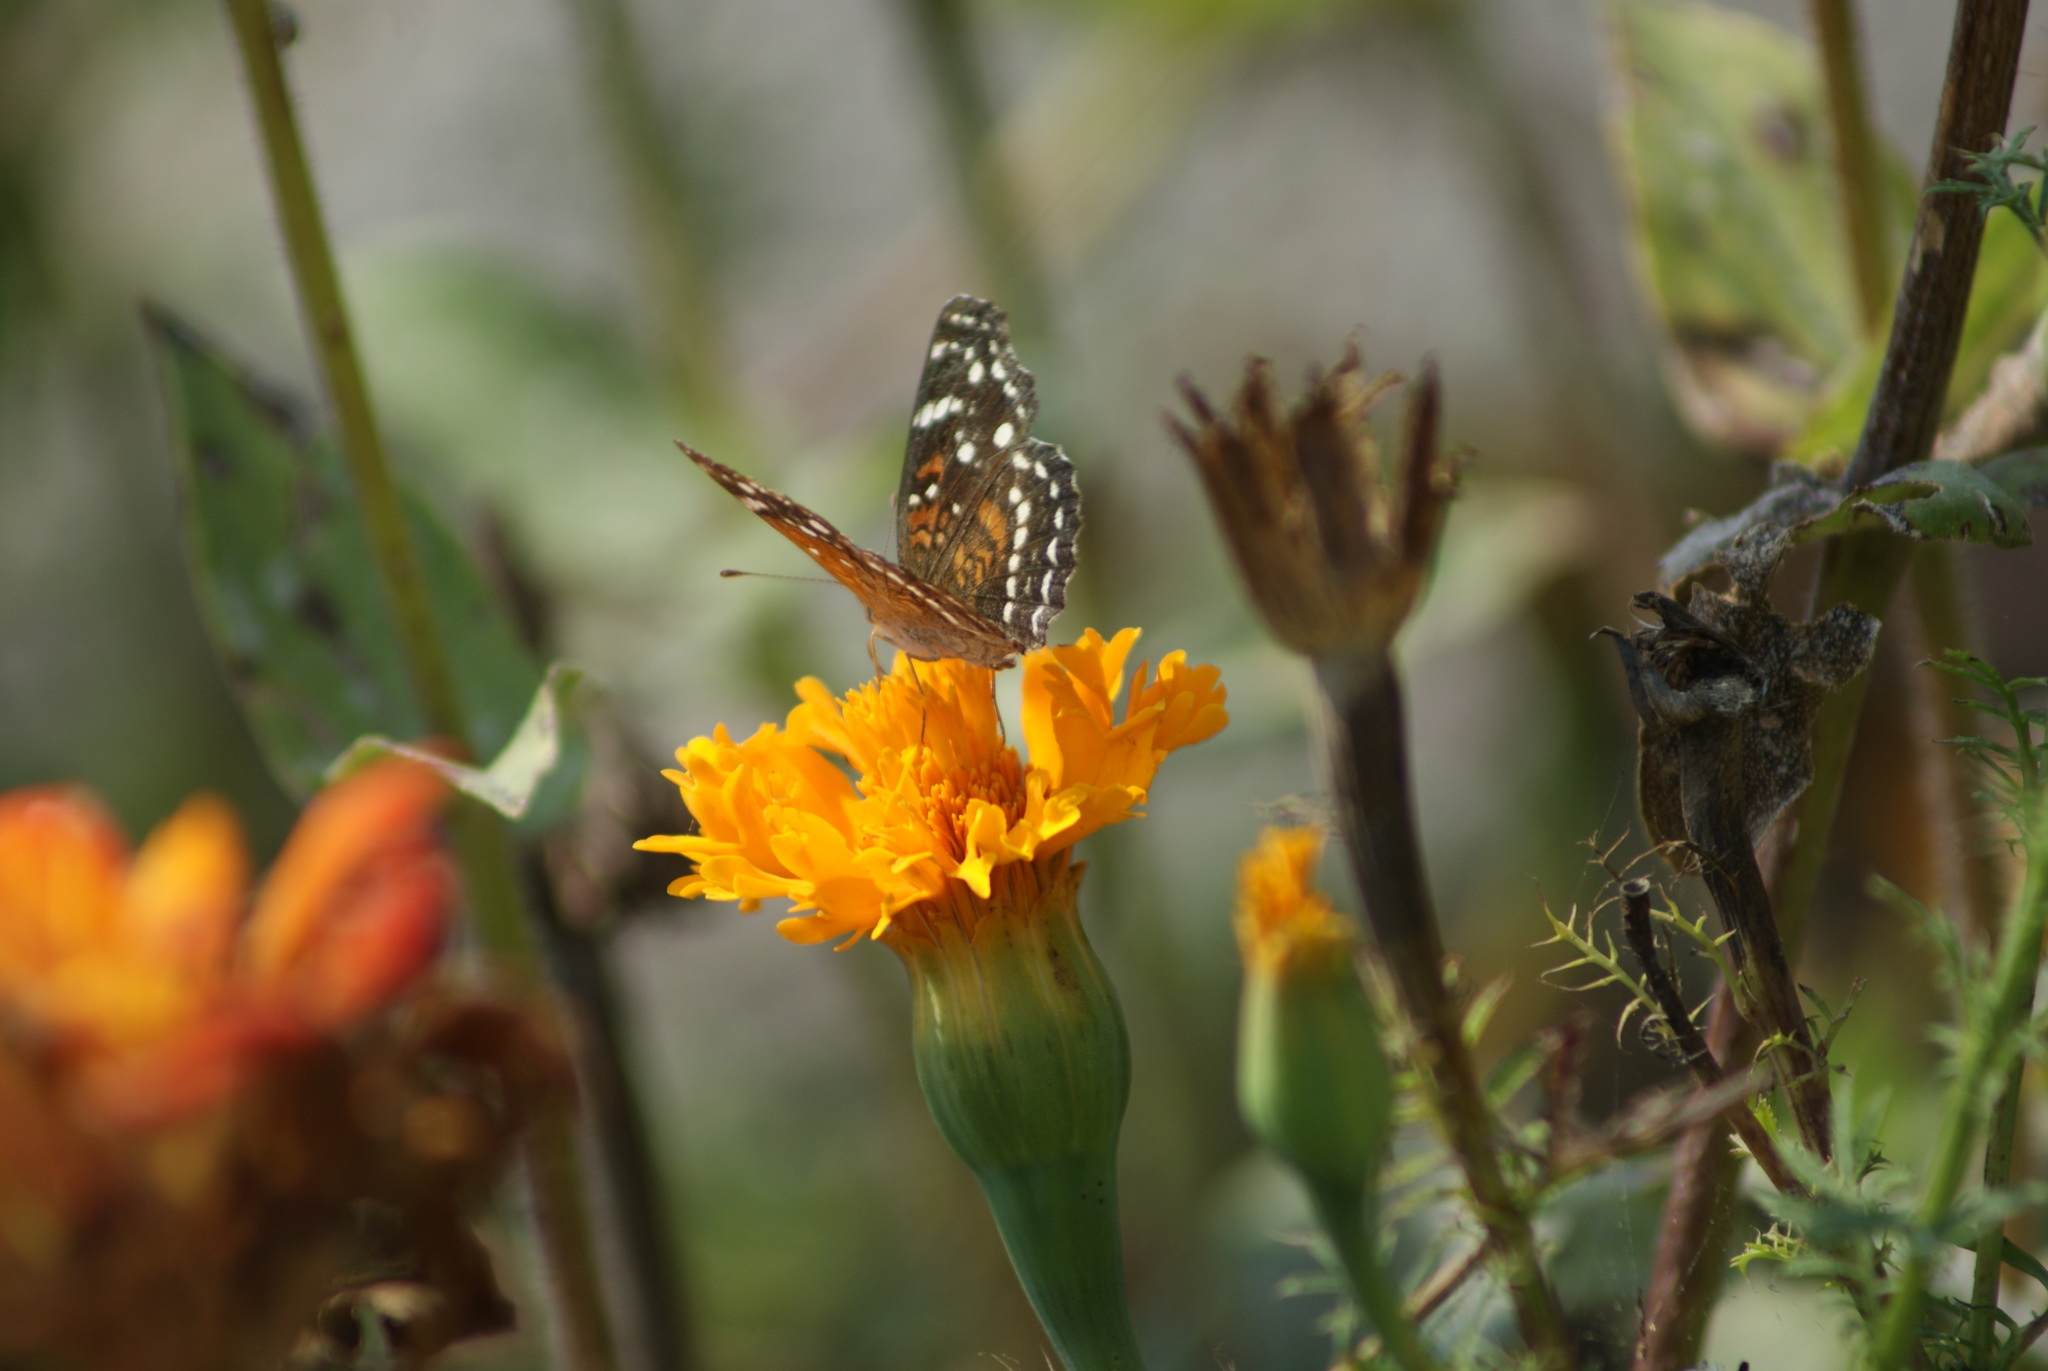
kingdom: Animalia
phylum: Arthropoda
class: Insecta
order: Lepidoptera
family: Nymphalidae
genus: Anthanassa
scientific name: Anthanassa texana
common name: Texan crescent
